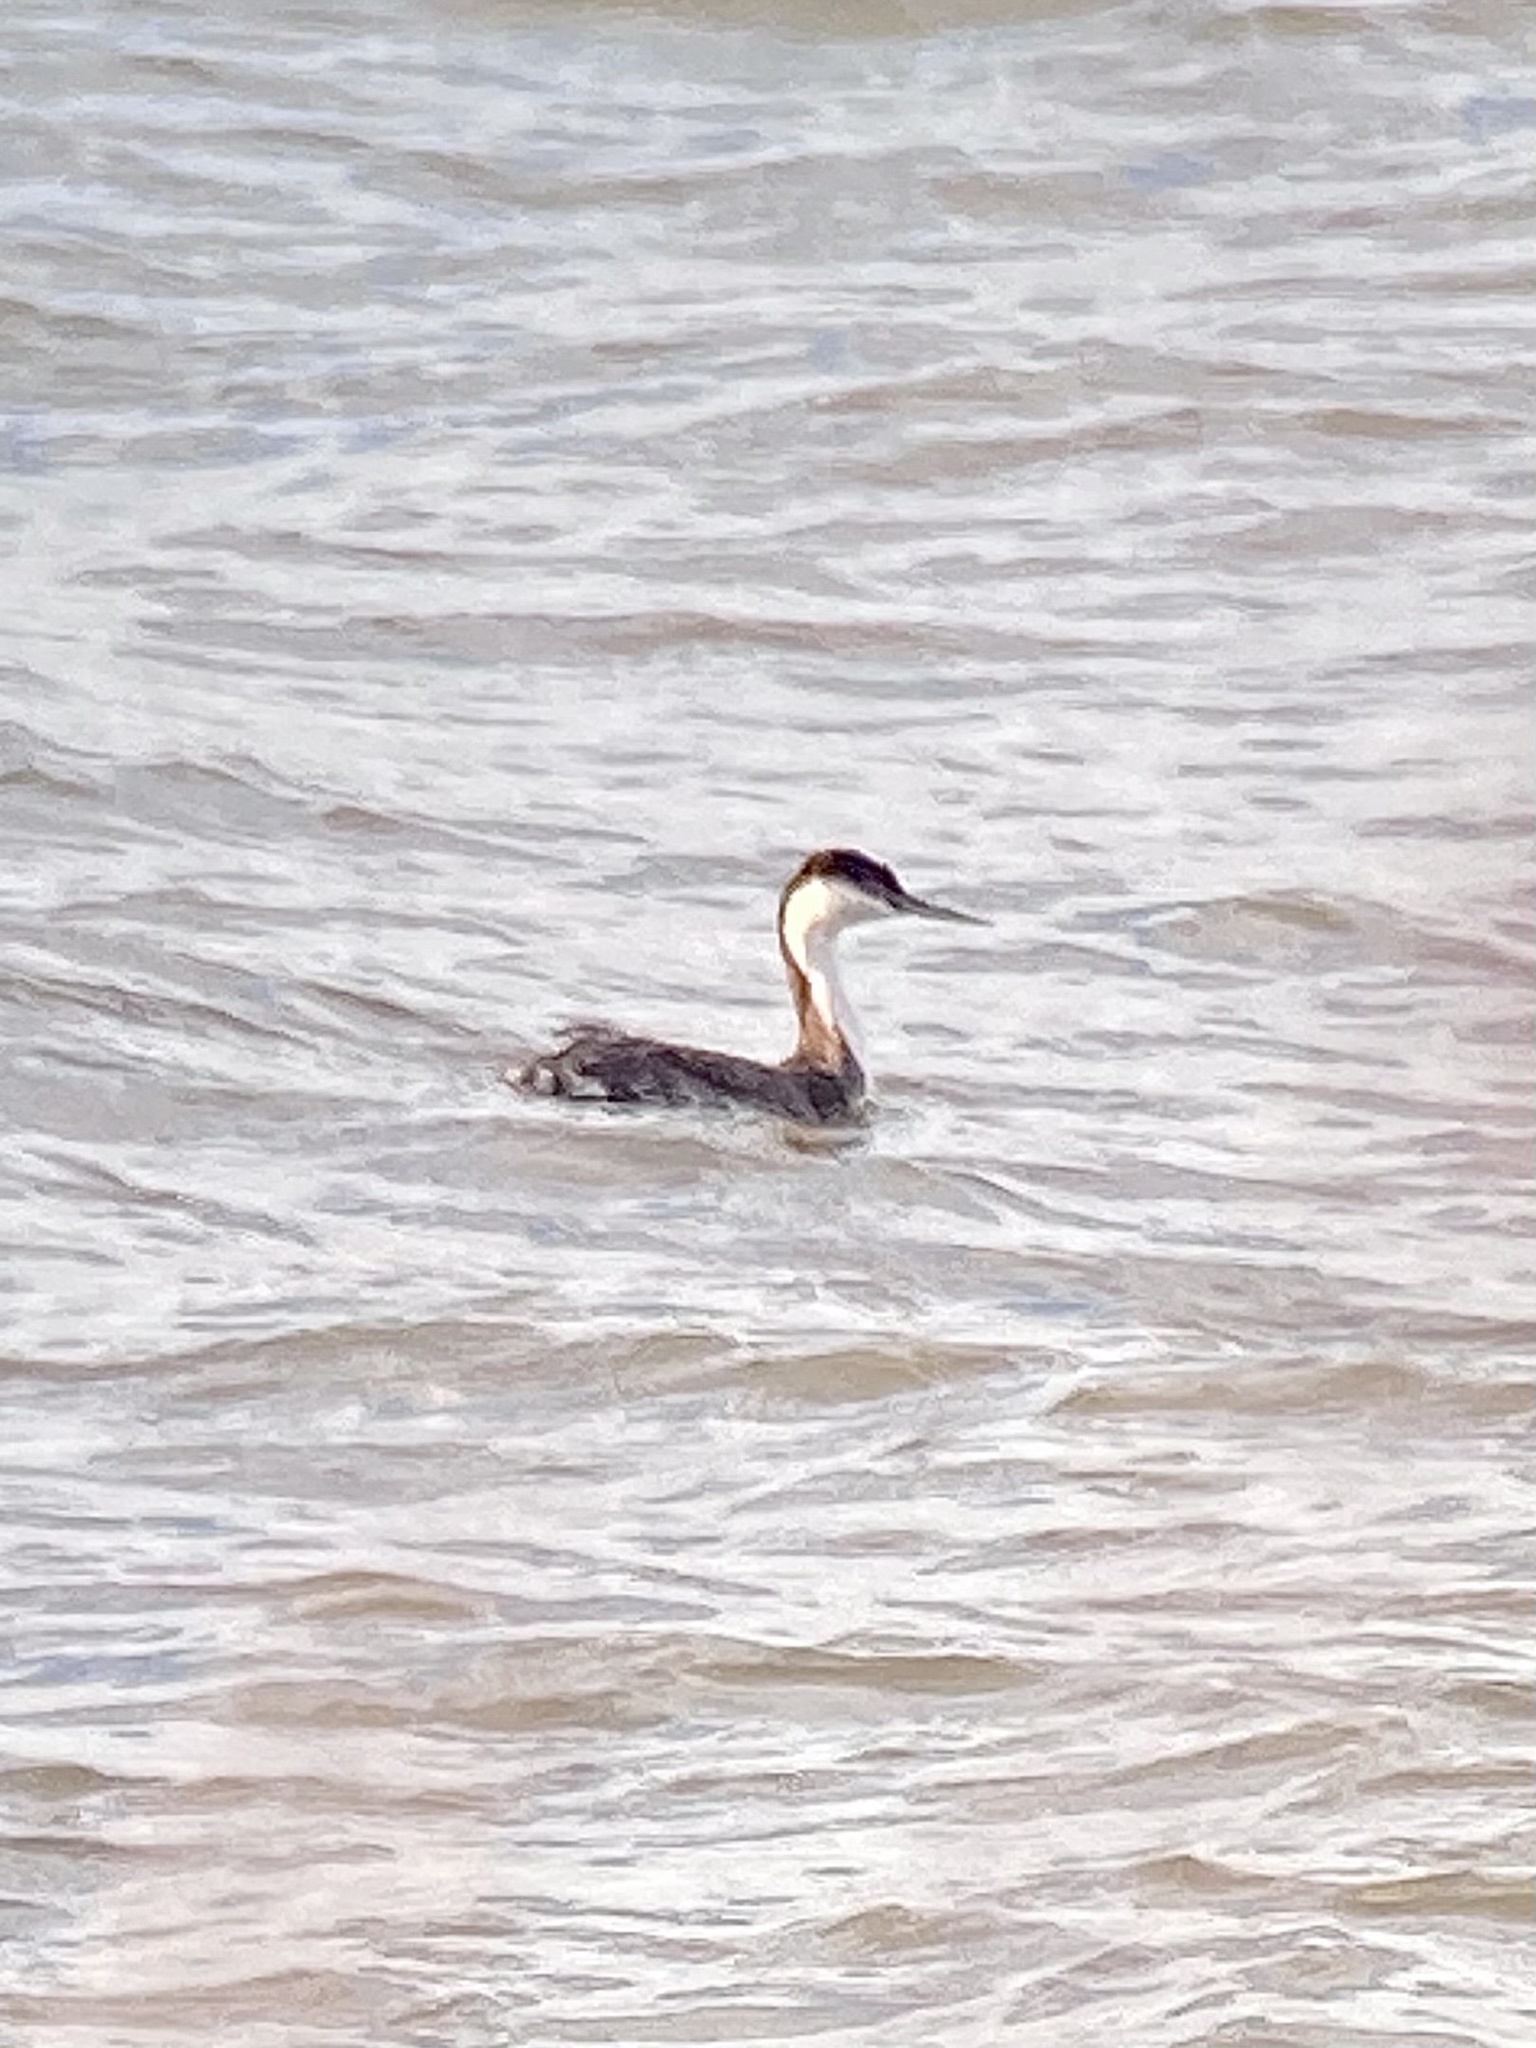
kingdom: Animalia
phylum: Chordata
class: Aves
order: Podicipediformes
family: Podicipedidae
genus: Aechmophorus
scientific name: Aechmophorus occidentalis
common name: Western grebe
